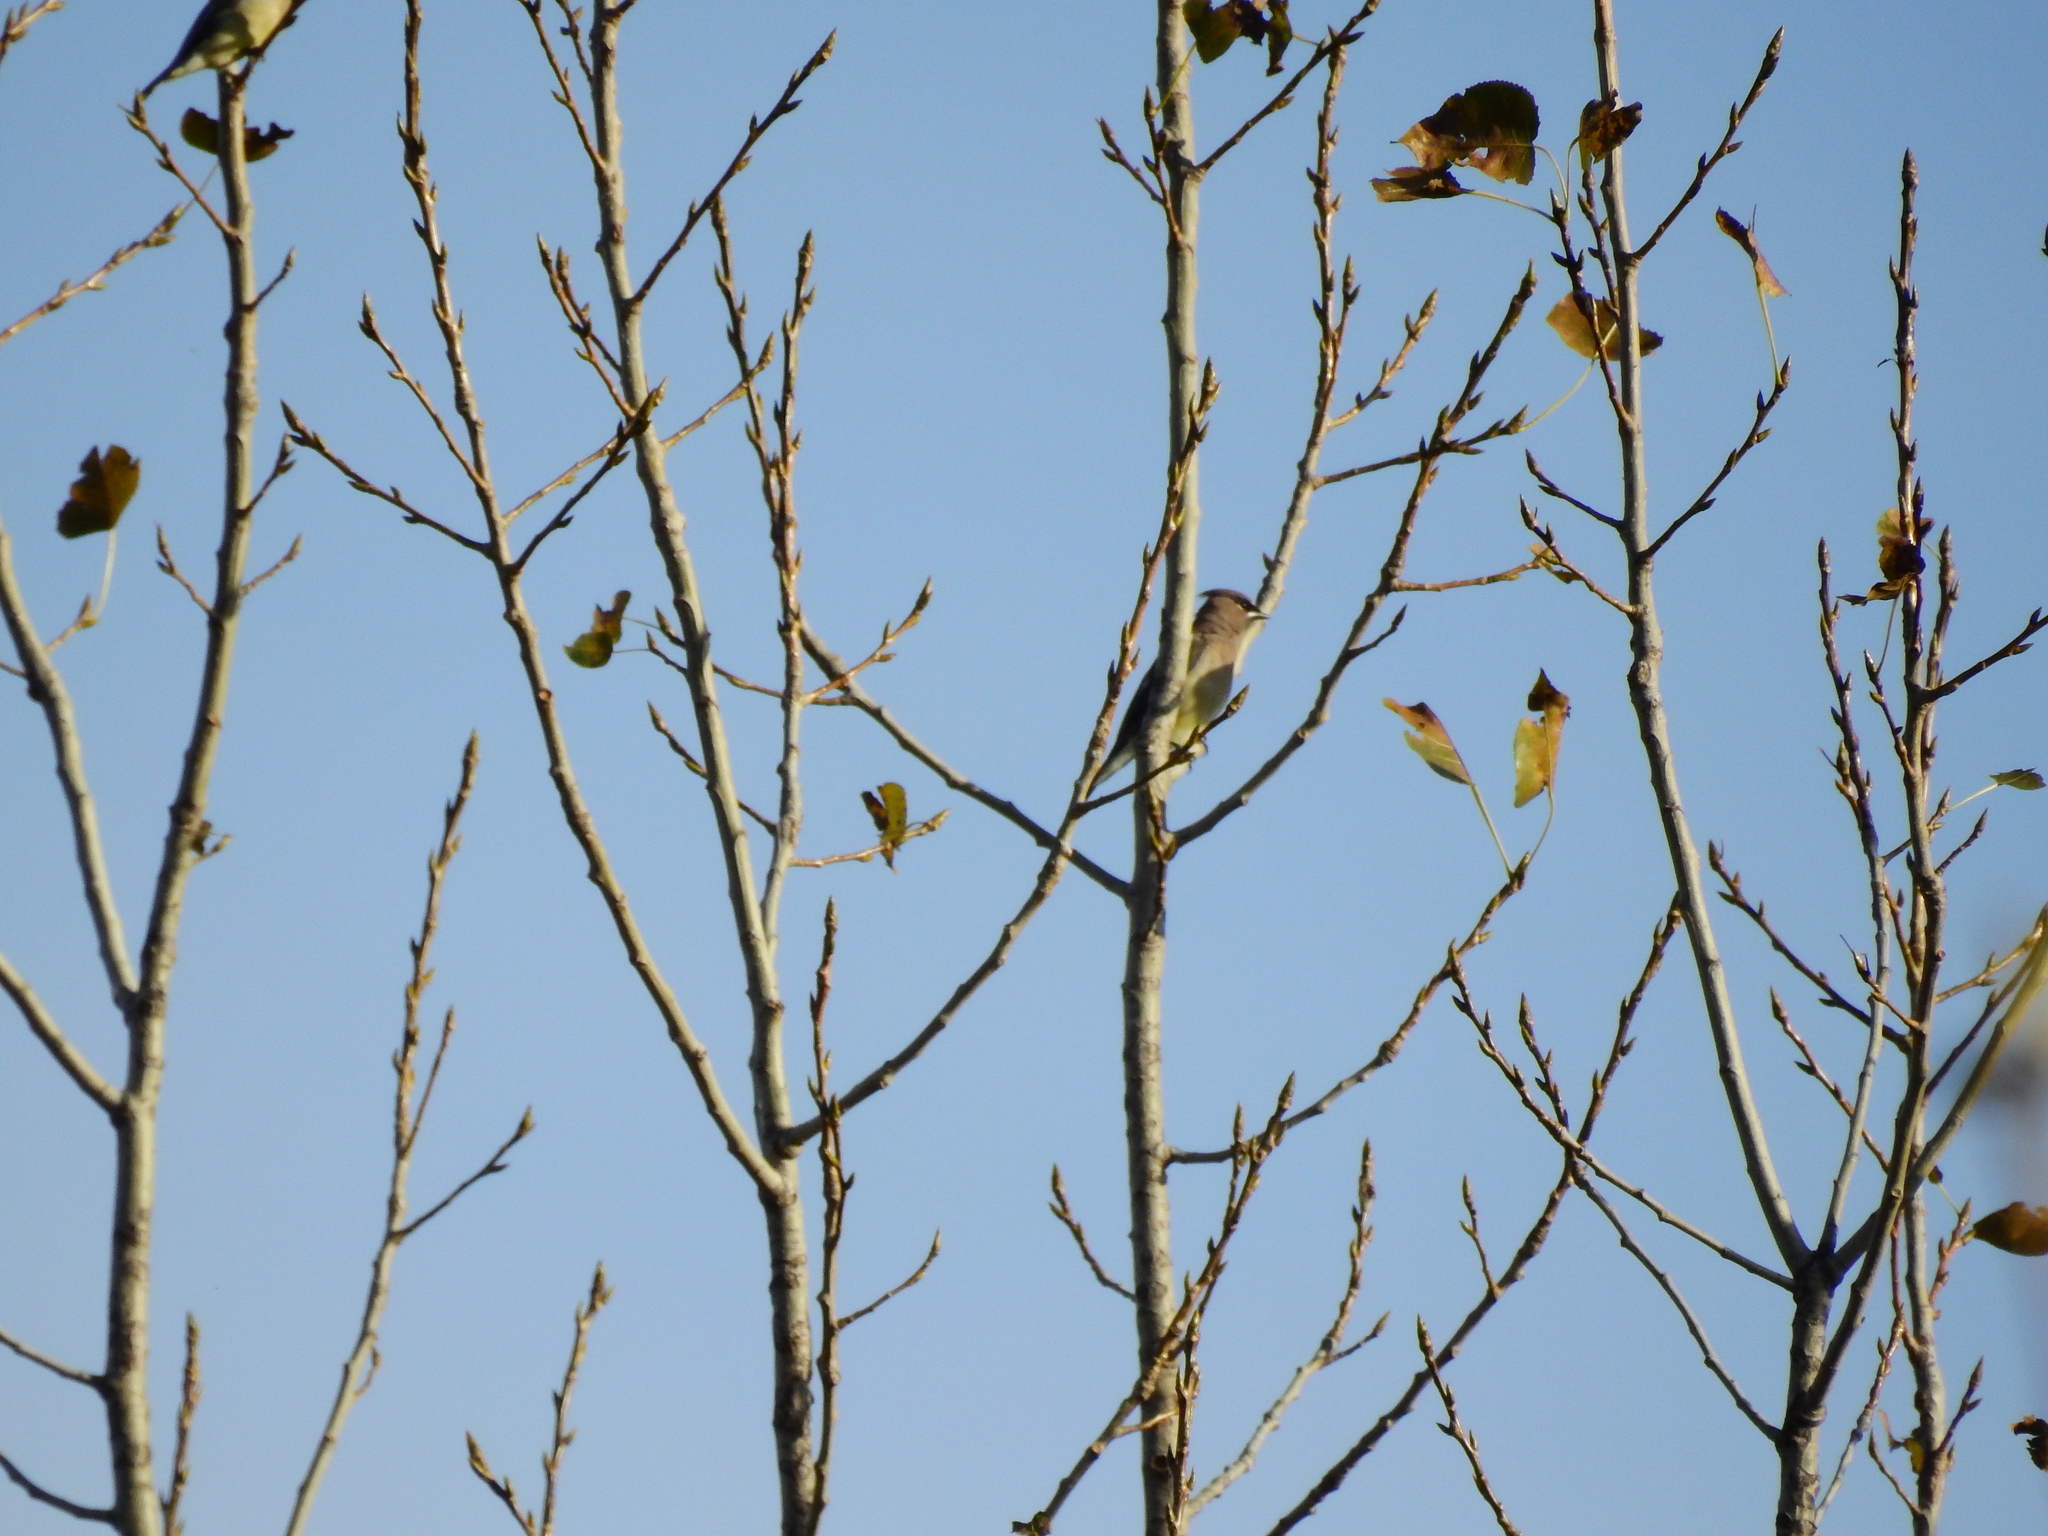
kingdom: Animalia
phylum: Chordata
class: Aves
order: Passeriformes
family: Bombycillidae
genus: Bombycilla
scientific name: Bombycilla cedrorum
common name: Cedar waxwing
